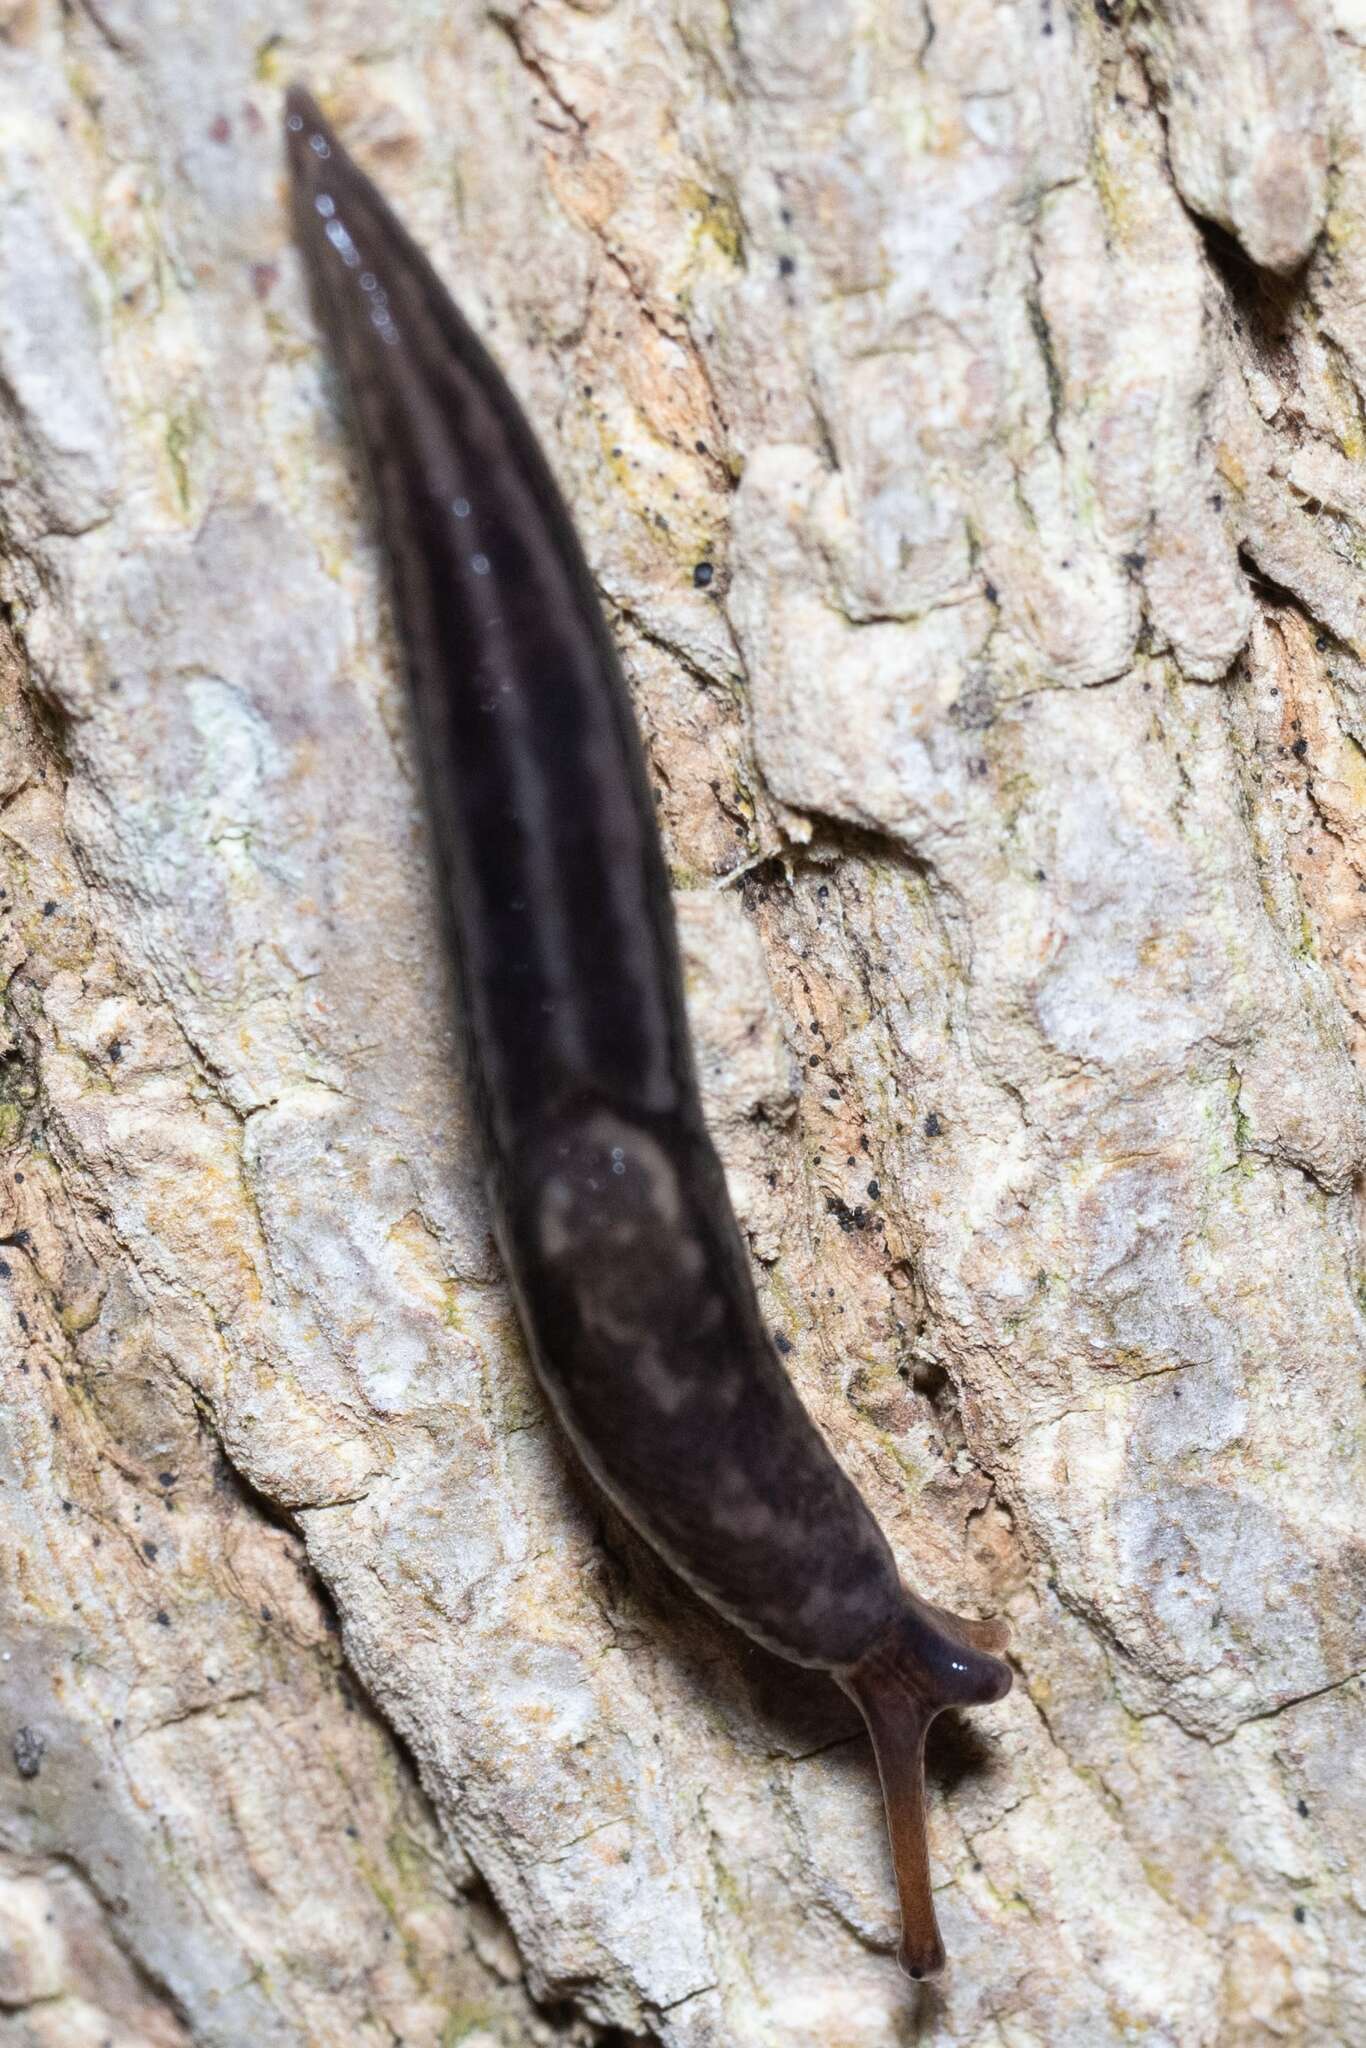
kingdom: Animalia
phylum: Mollusca
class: Gastropoda
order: Stylommatophora
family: Limacidae
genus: Limax
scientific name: Limax maximus
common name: Great grey slug
